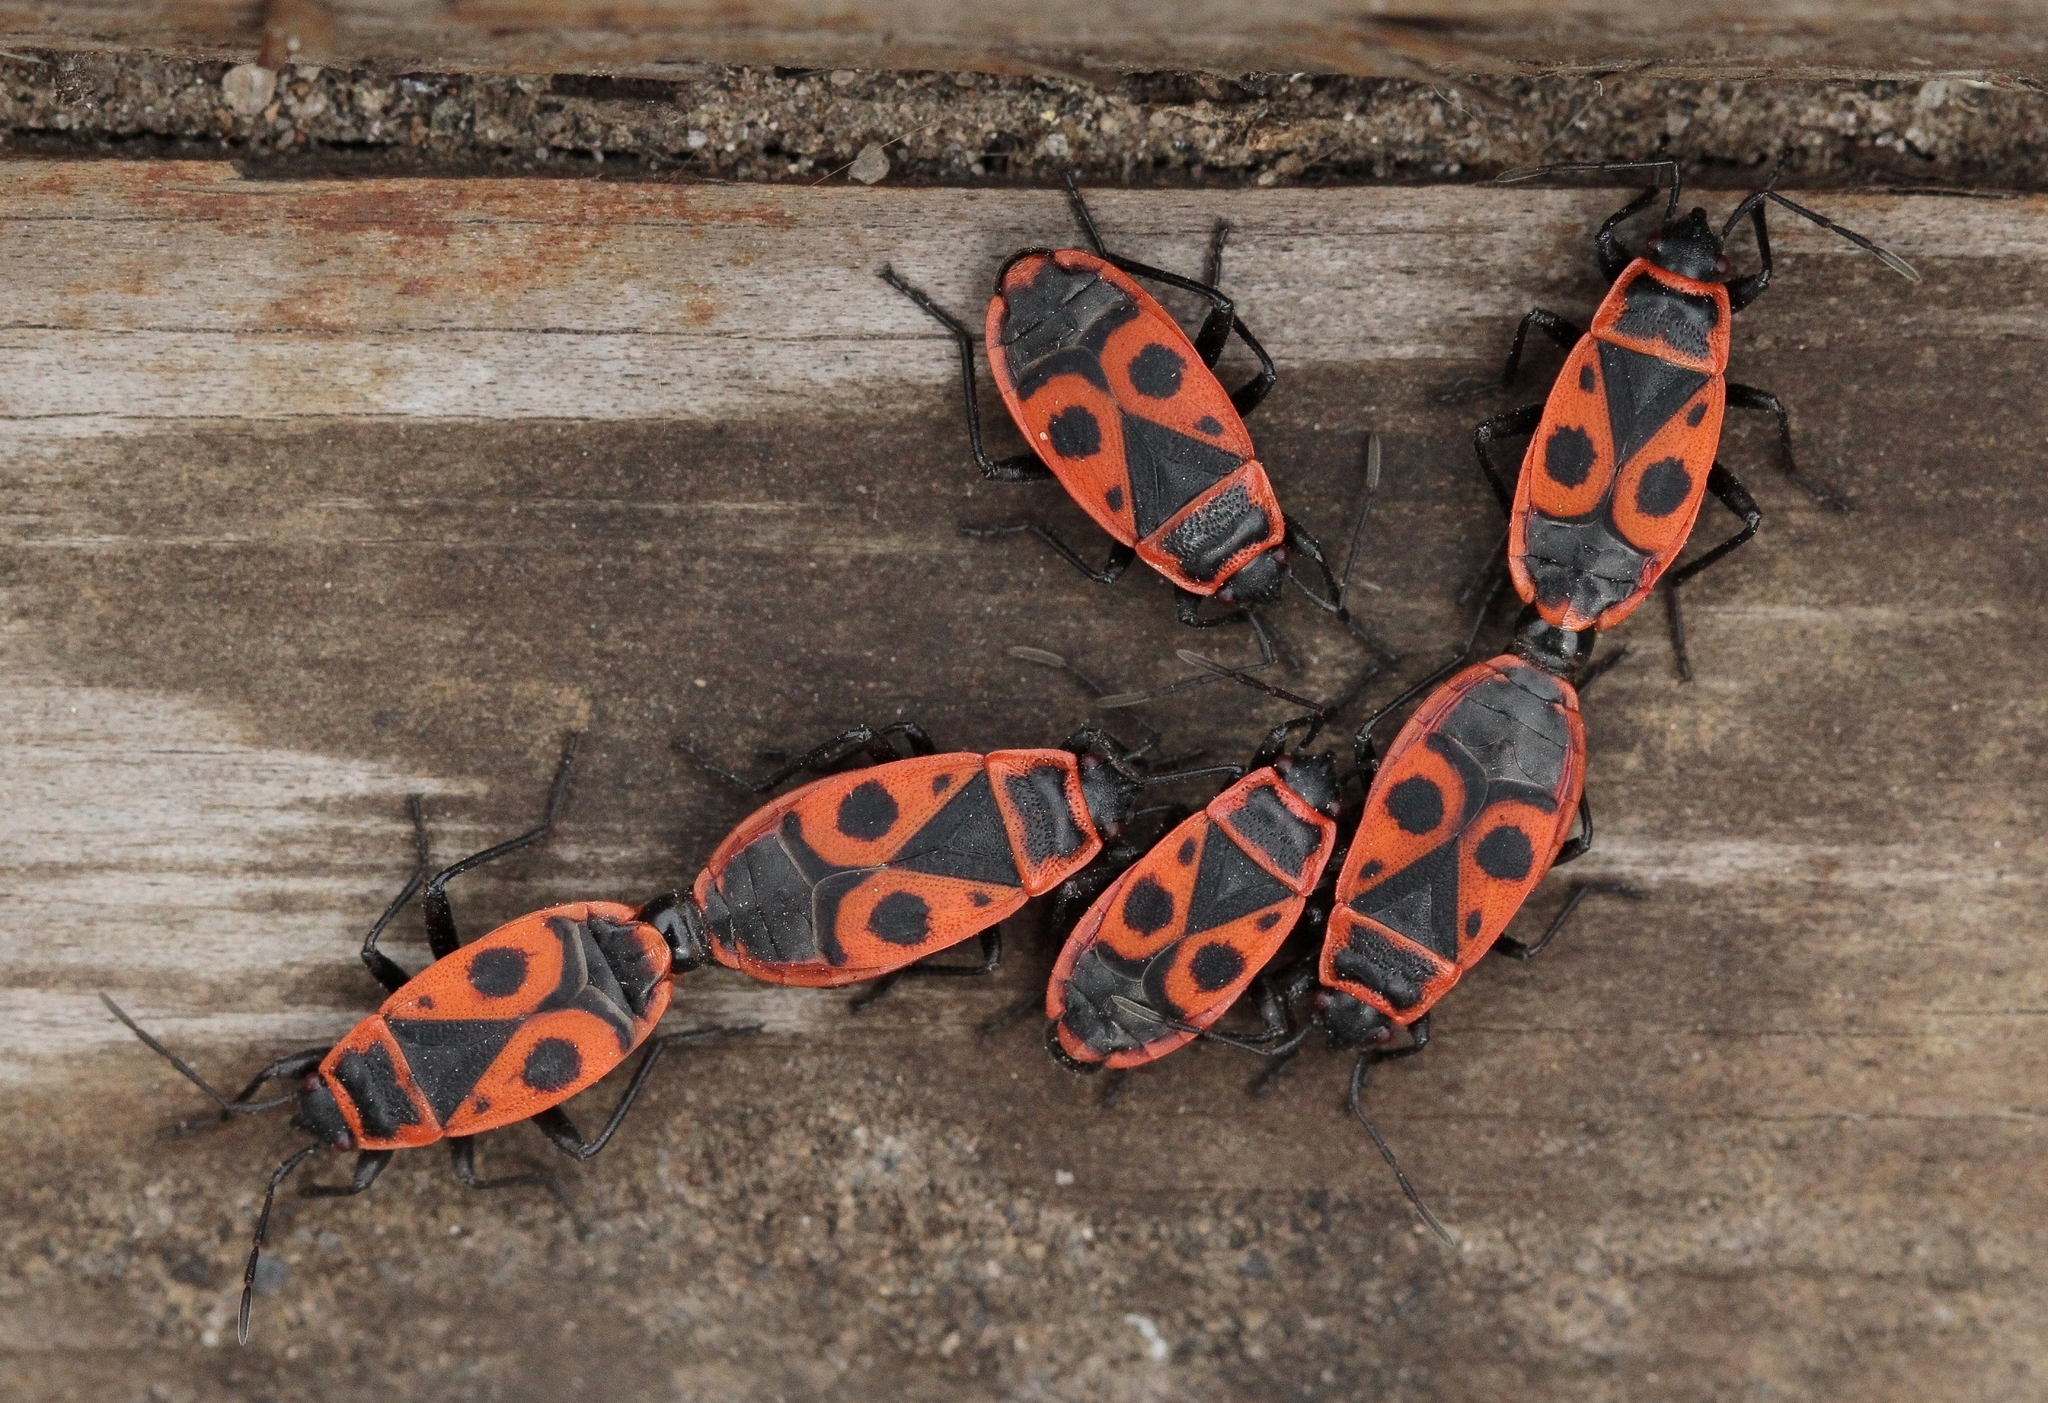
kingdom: Animalia
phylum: Arthropoda
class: Insecta
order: Hemiptera
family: Pyrrhocoridae
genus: Pyrrhocoris
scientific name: Pyrrhocoris apterus
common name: Firebug
